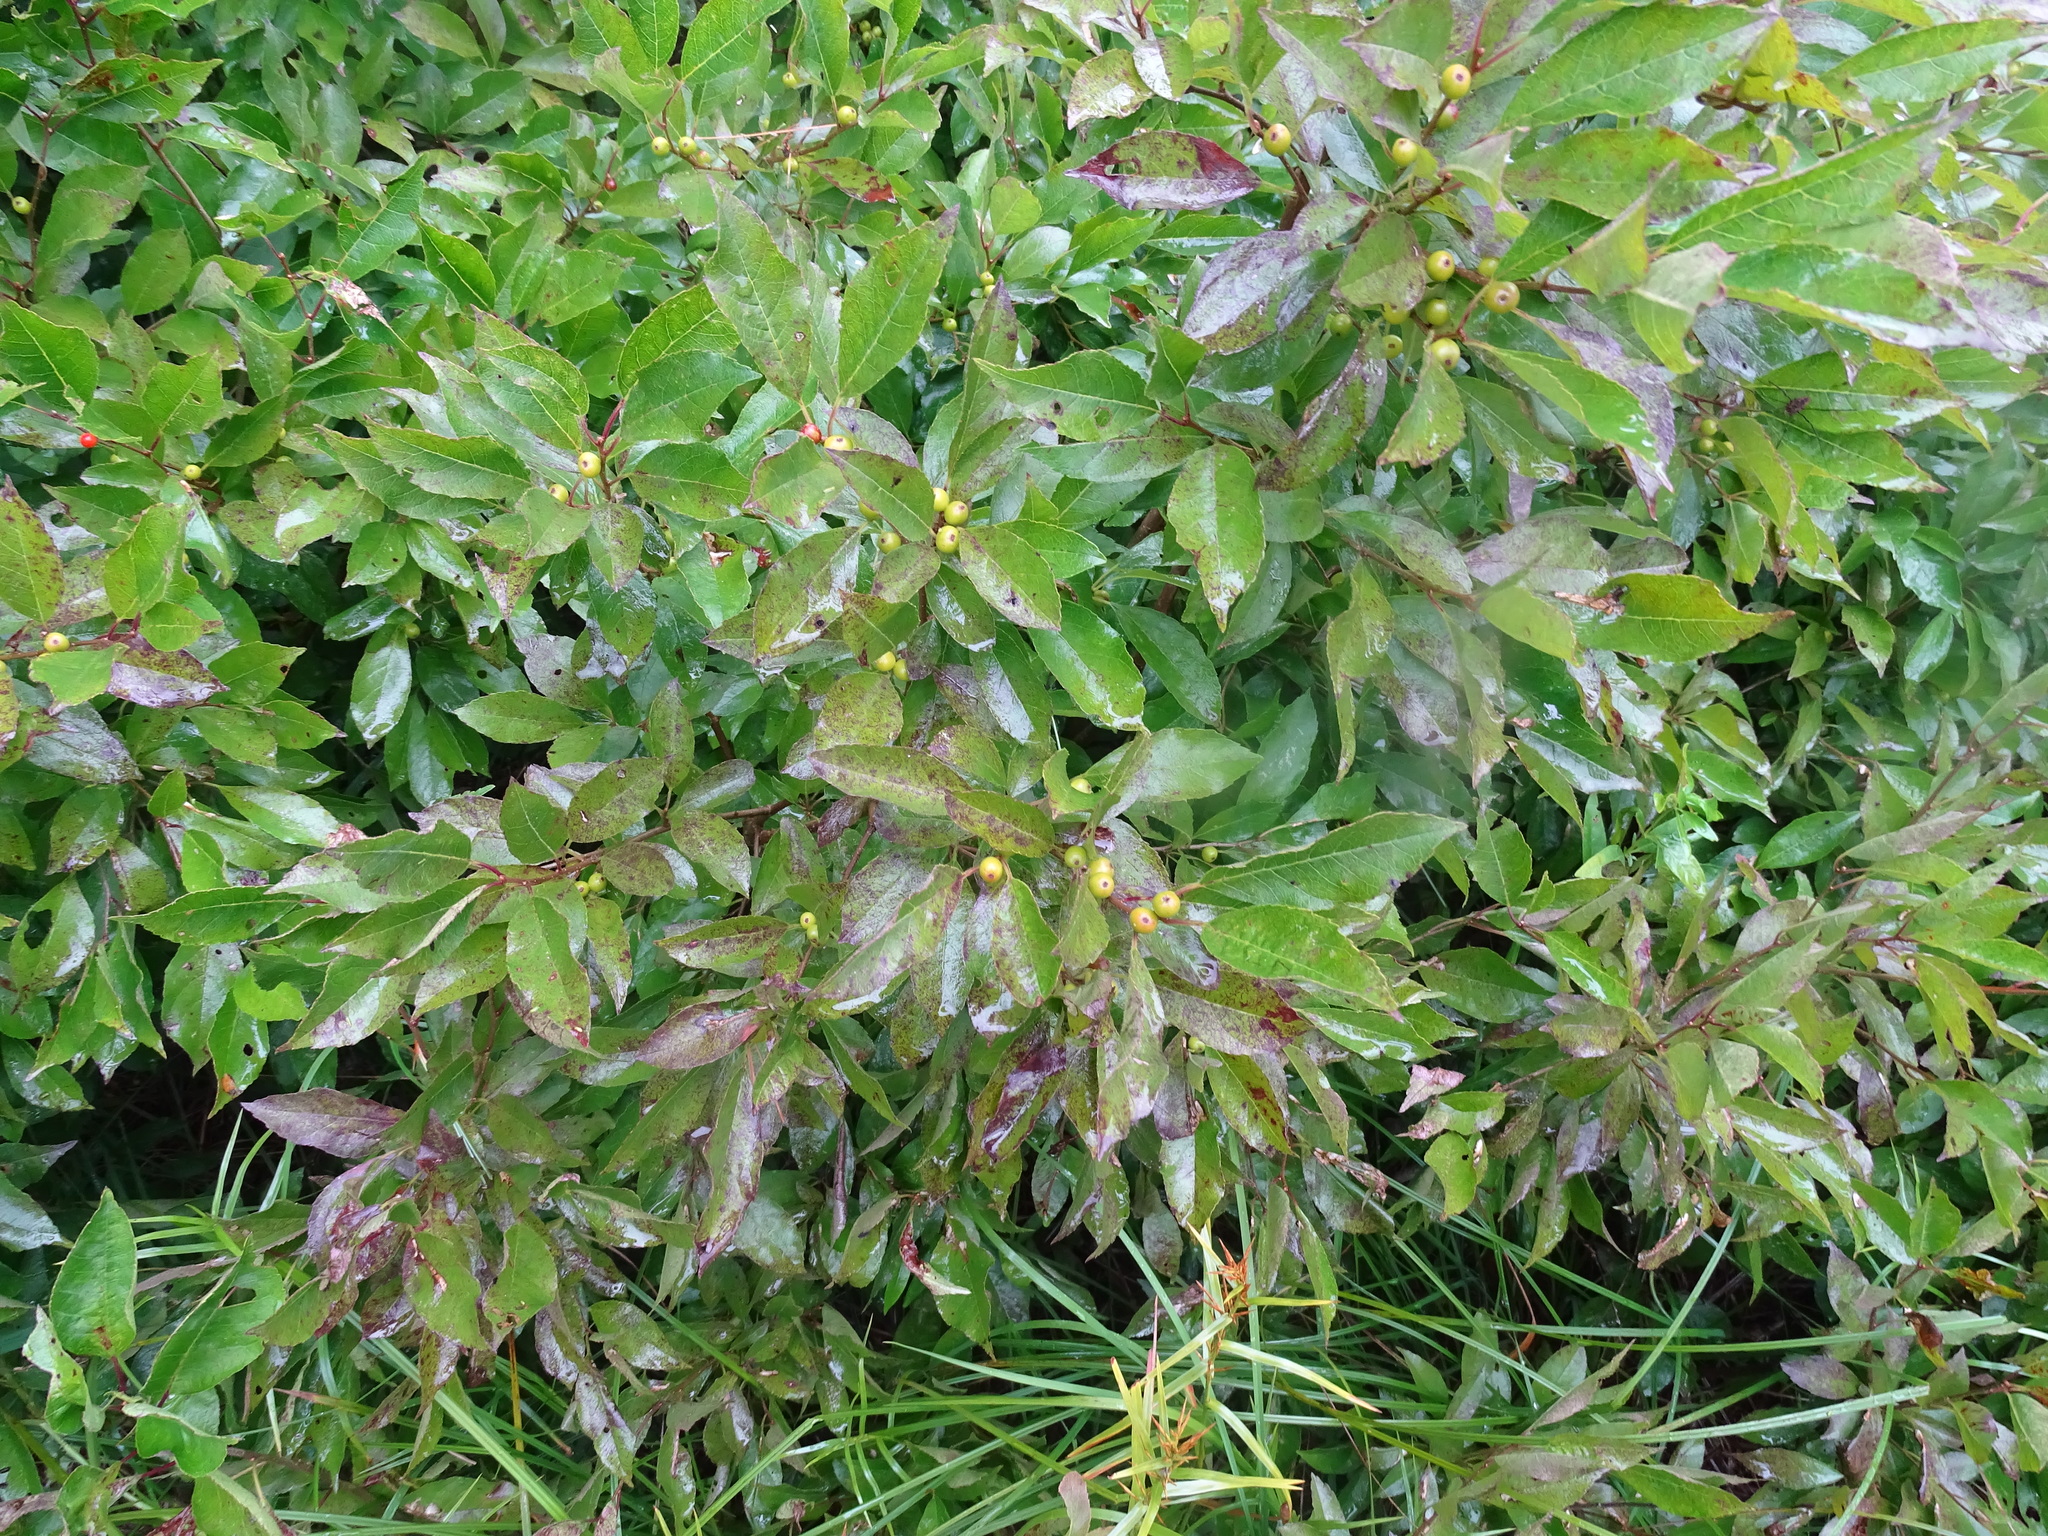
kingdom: Plantae
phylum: Tracheophyta
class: Magnoliopsida
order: Aquifoliales
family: Aquifoliaceae
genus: Ilex
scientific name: Ilex verticillata
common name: Virginia winterberry
